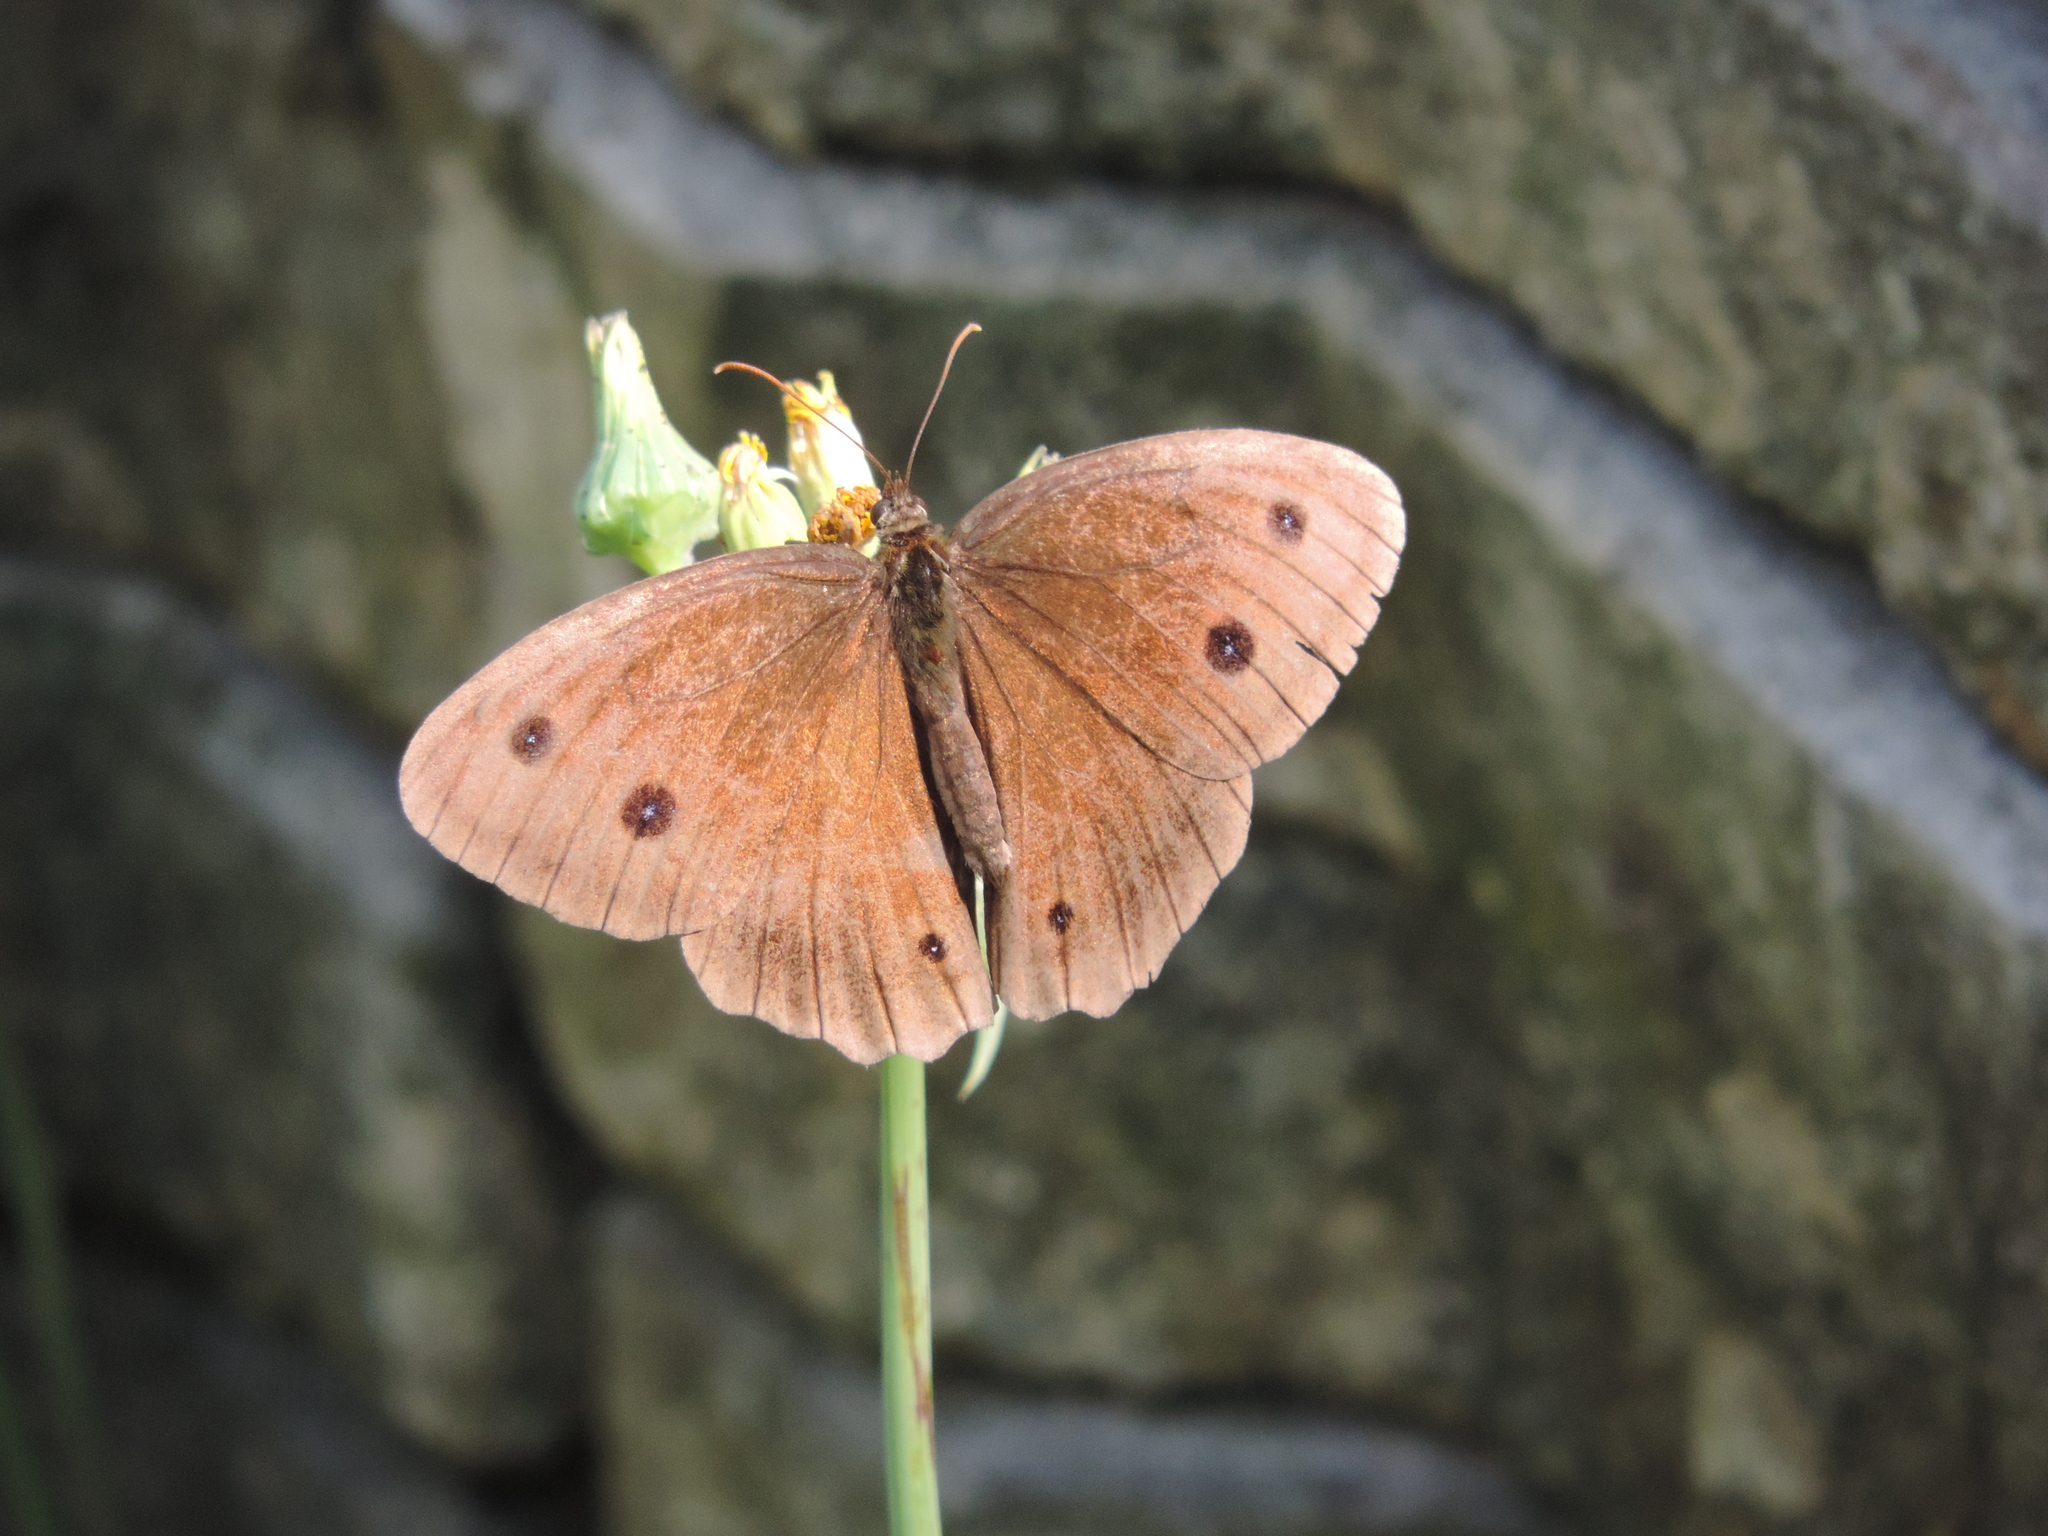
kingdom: Animalia
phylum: Arthropoda
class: Insecta
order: Lepidoptera
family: Nymphalidae
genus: Minois
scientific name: Minois dryas
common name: Dryad
